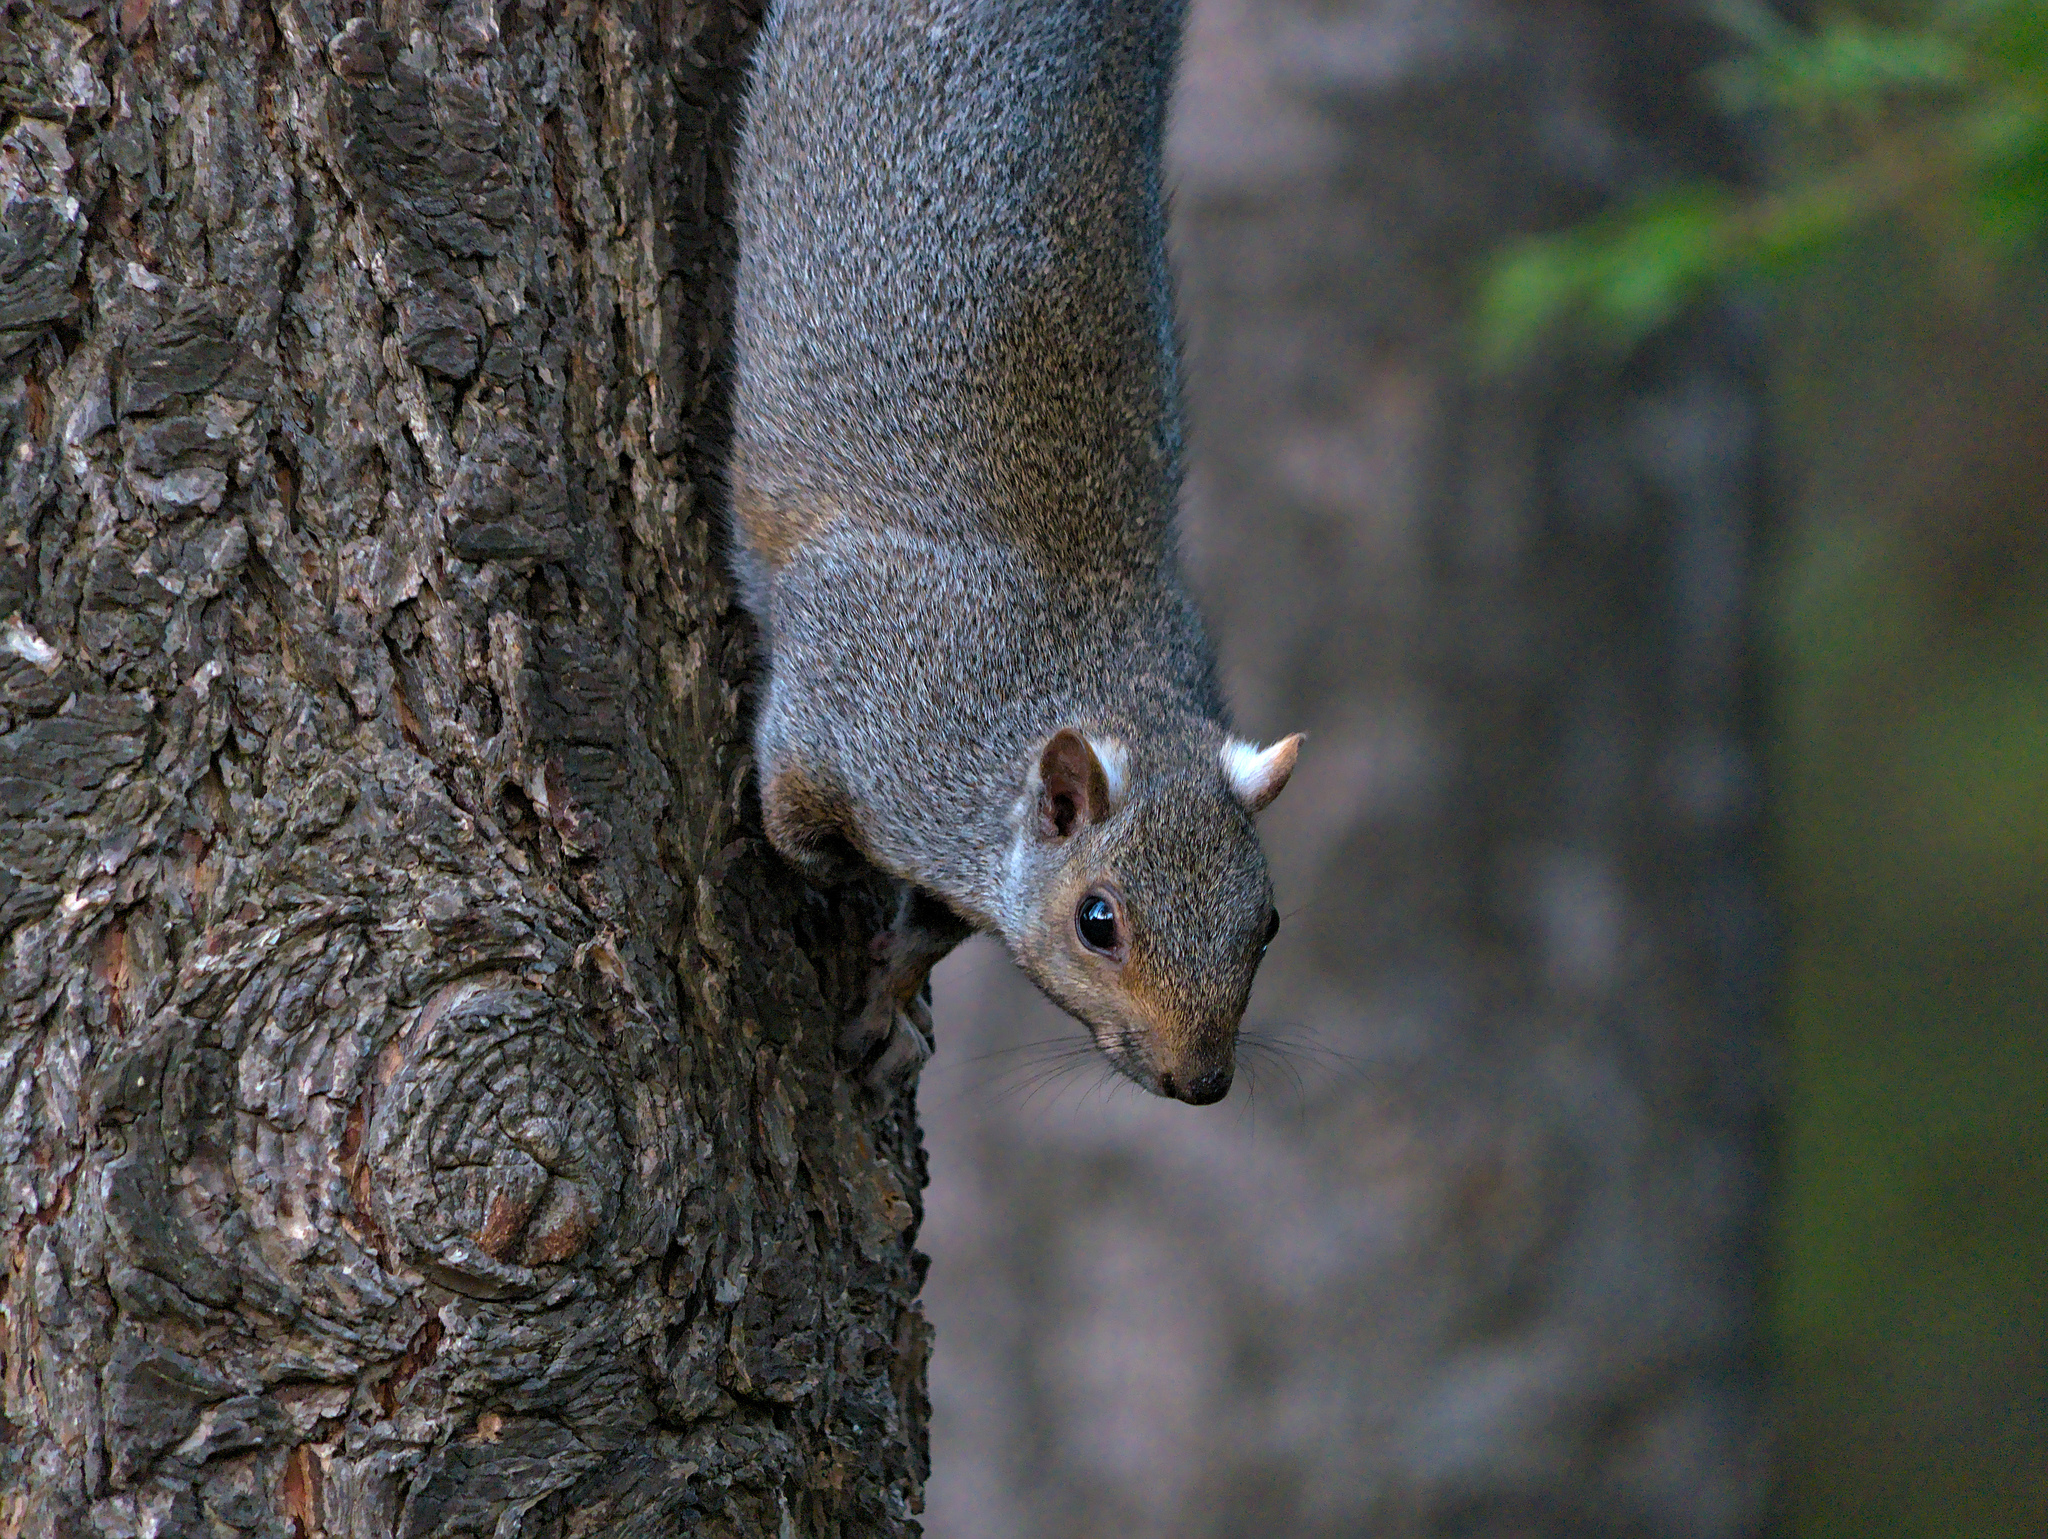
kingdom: Animalia
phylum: Chordata
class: Mammalia
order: Rodentia
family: Sciuridae
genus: Sciurus
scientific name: Sciurus carolinensis
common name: Eastern gray squirrel
